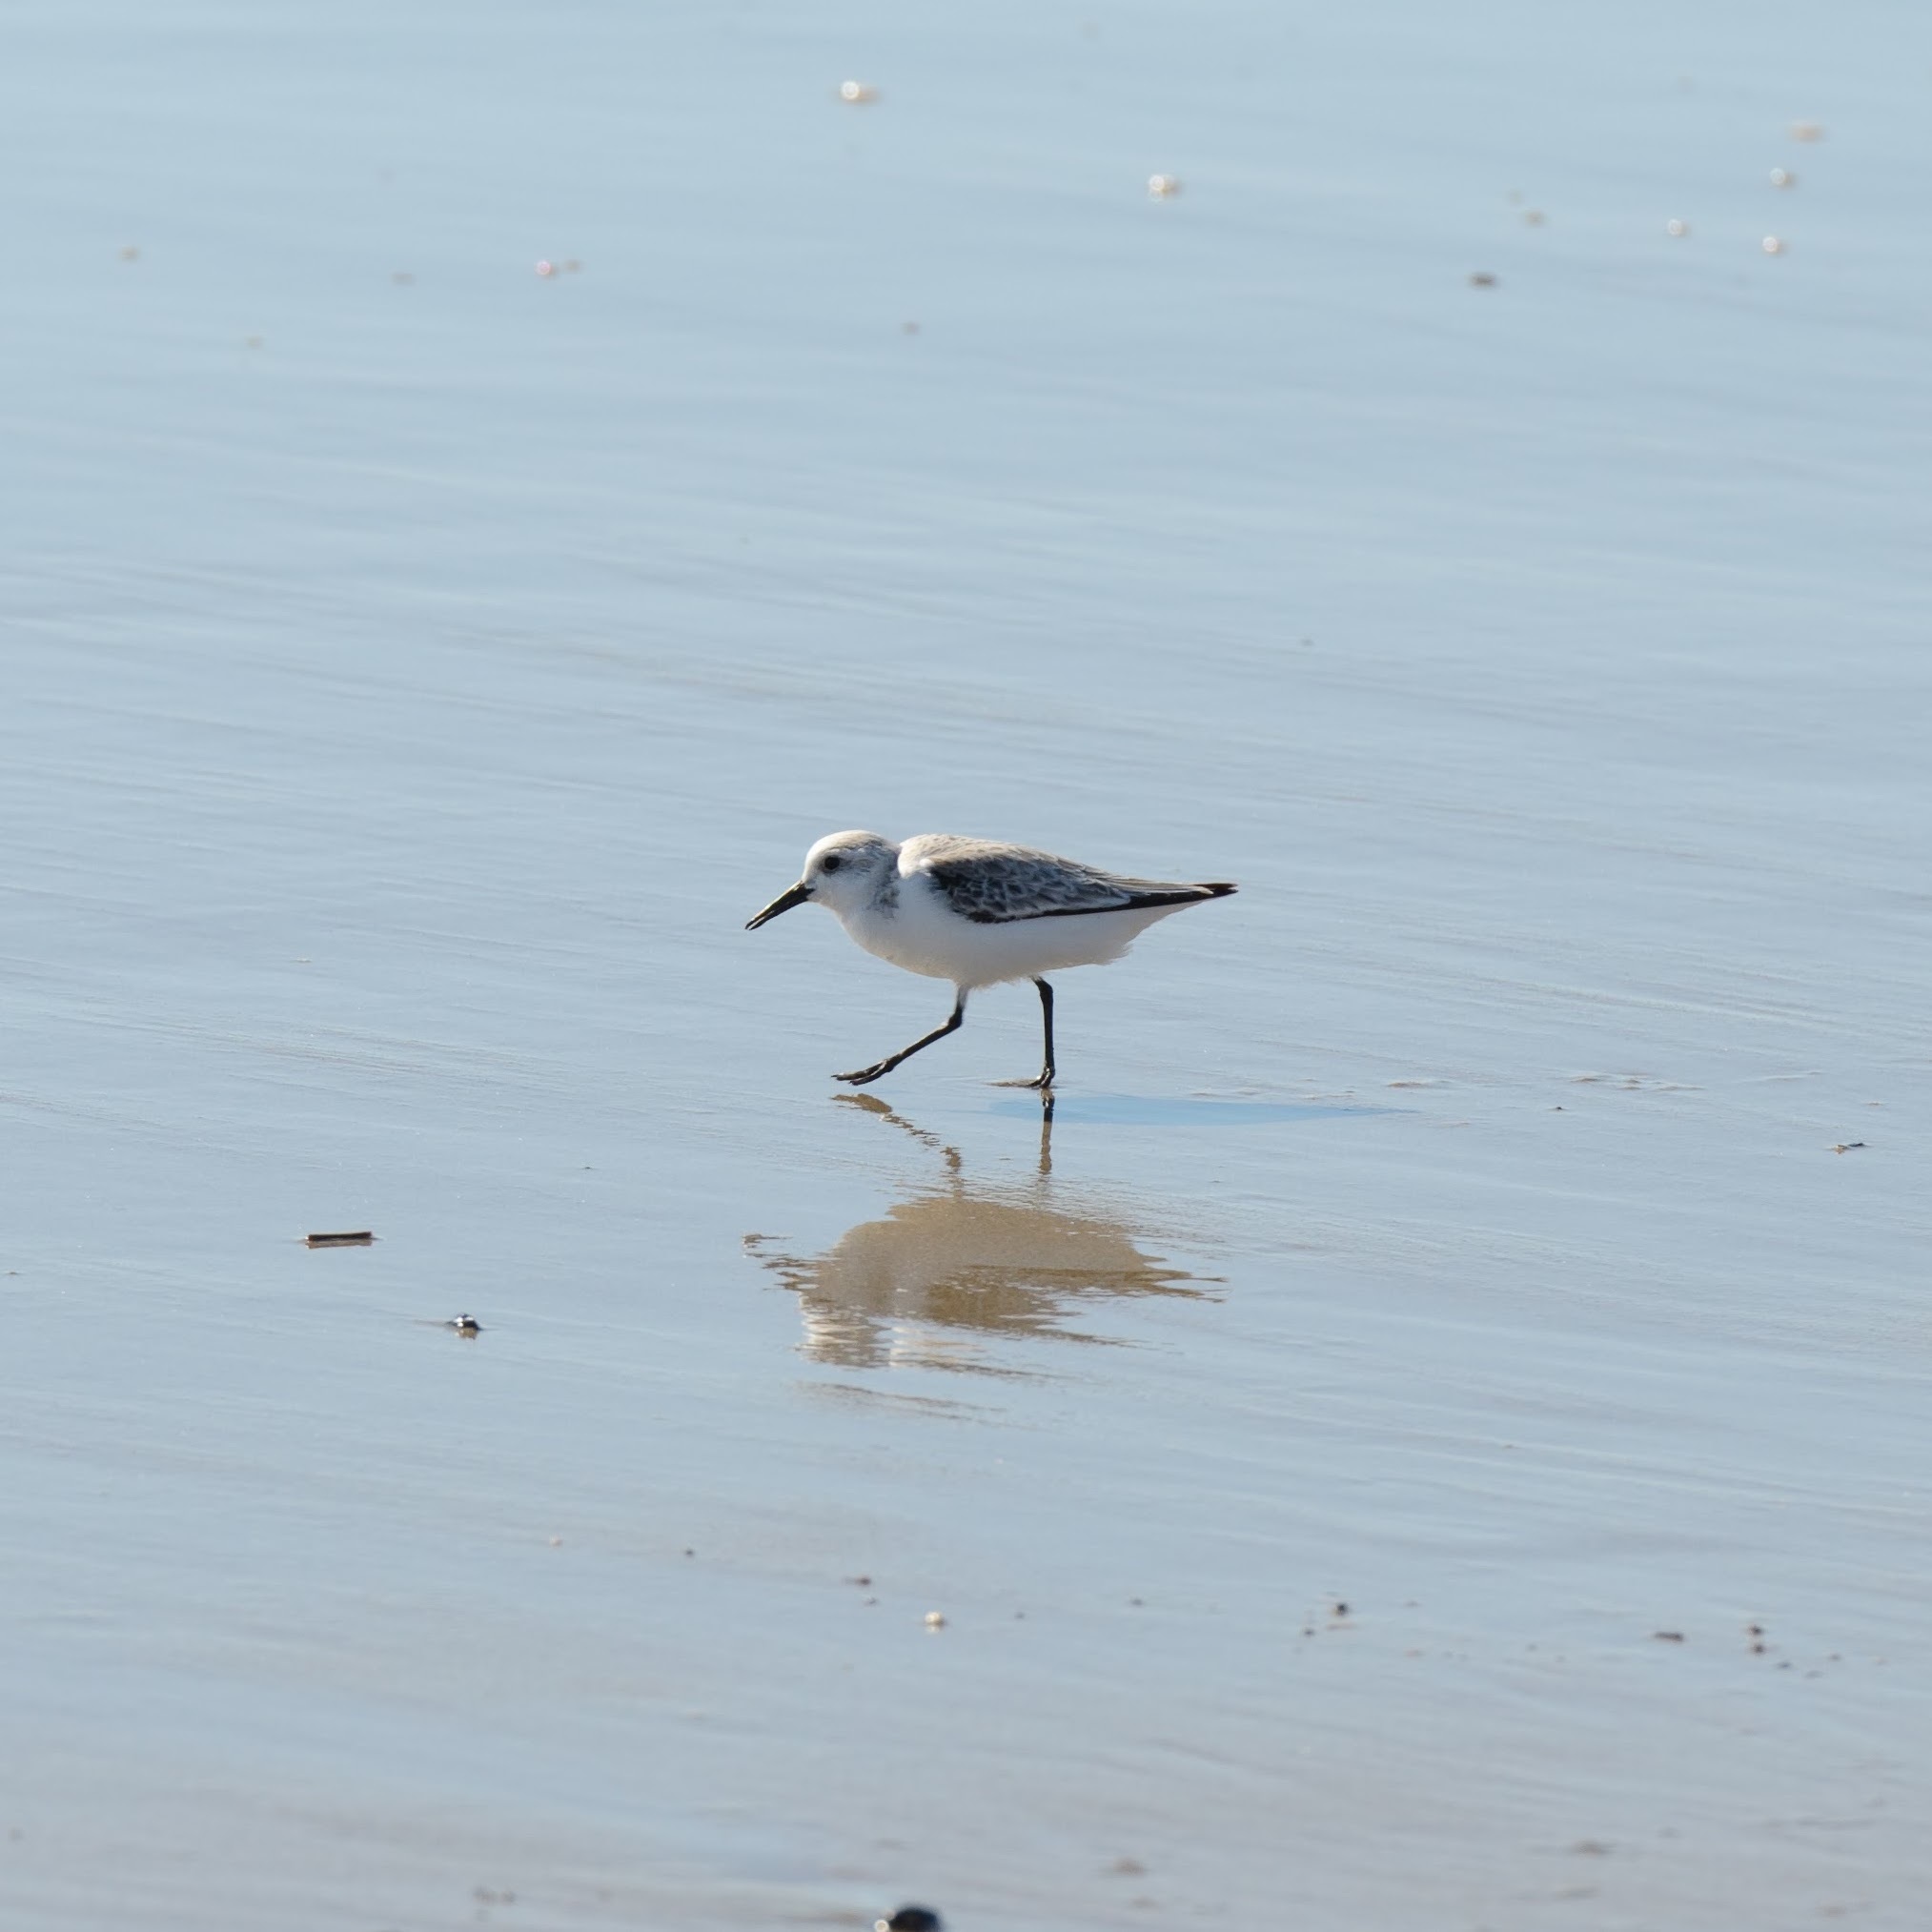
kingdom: Animalia
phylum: Chordata
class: Aves
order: Charadriiformes
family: Scolopacidae
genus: Calidris
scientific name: Calidris alba
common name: Sanderling
